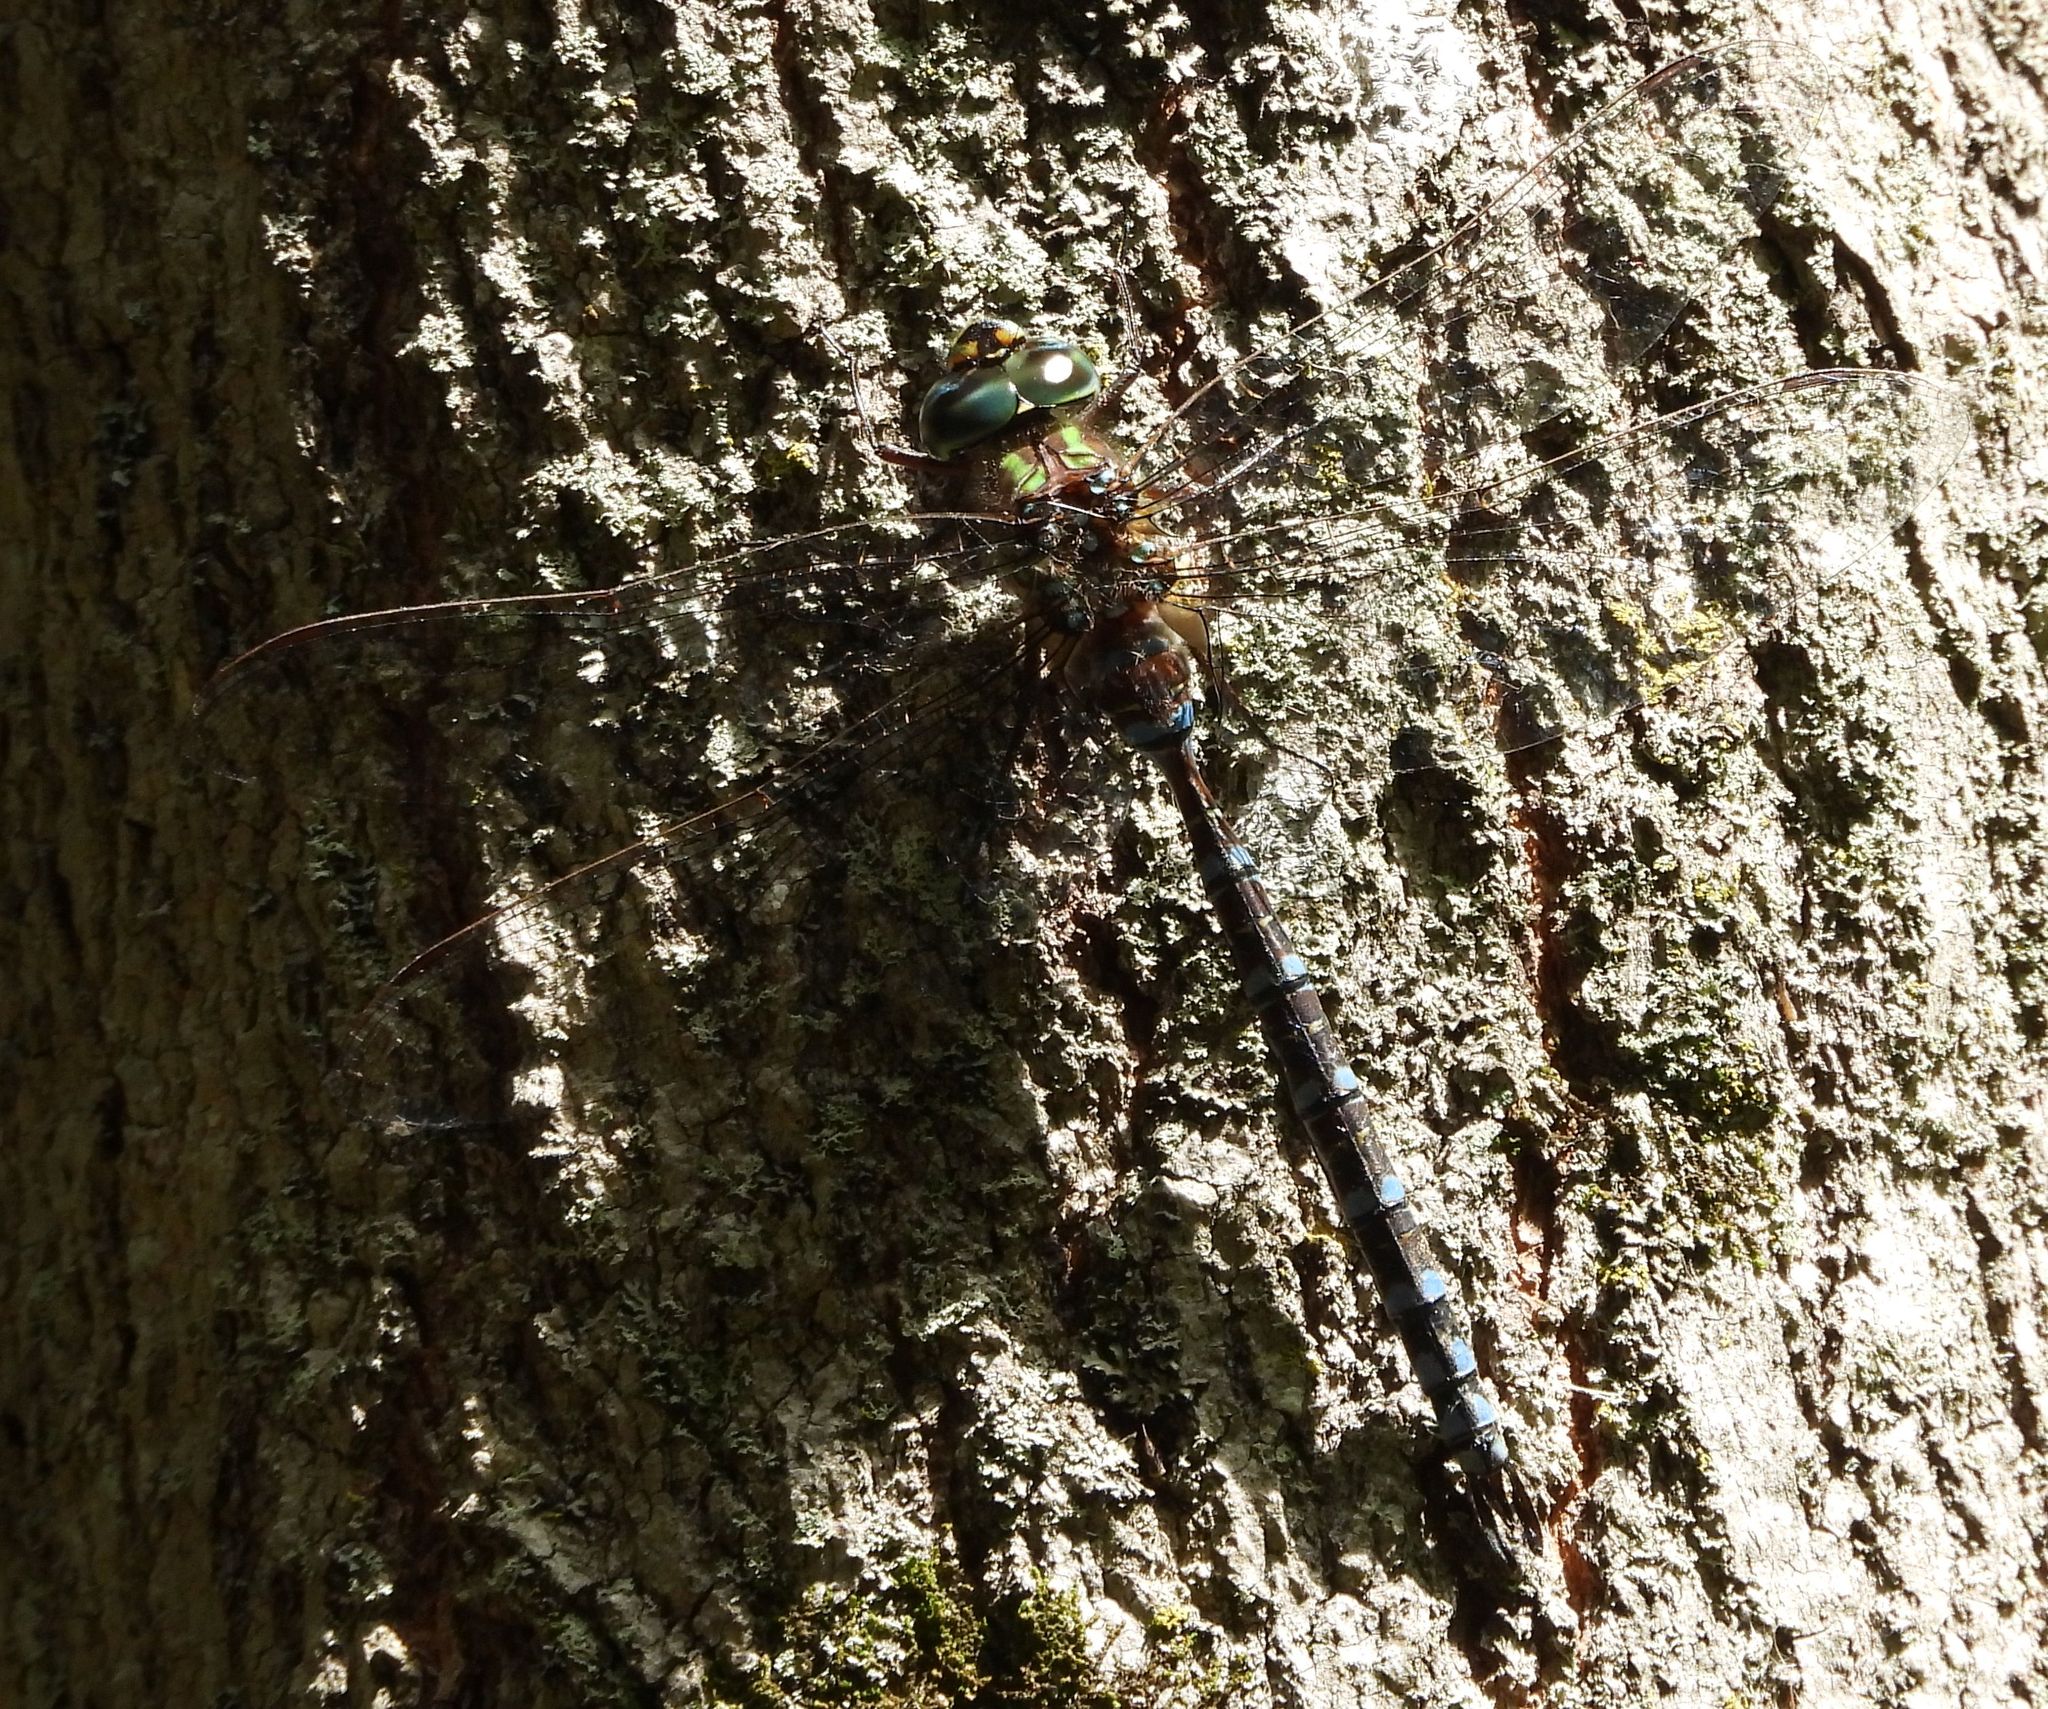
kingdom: Animalia
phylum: Arthropoda
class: Insecta
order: Odonata
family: Aeshnidae
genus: Aeshna
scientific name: Aeshna canadensis
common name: Canada darner
